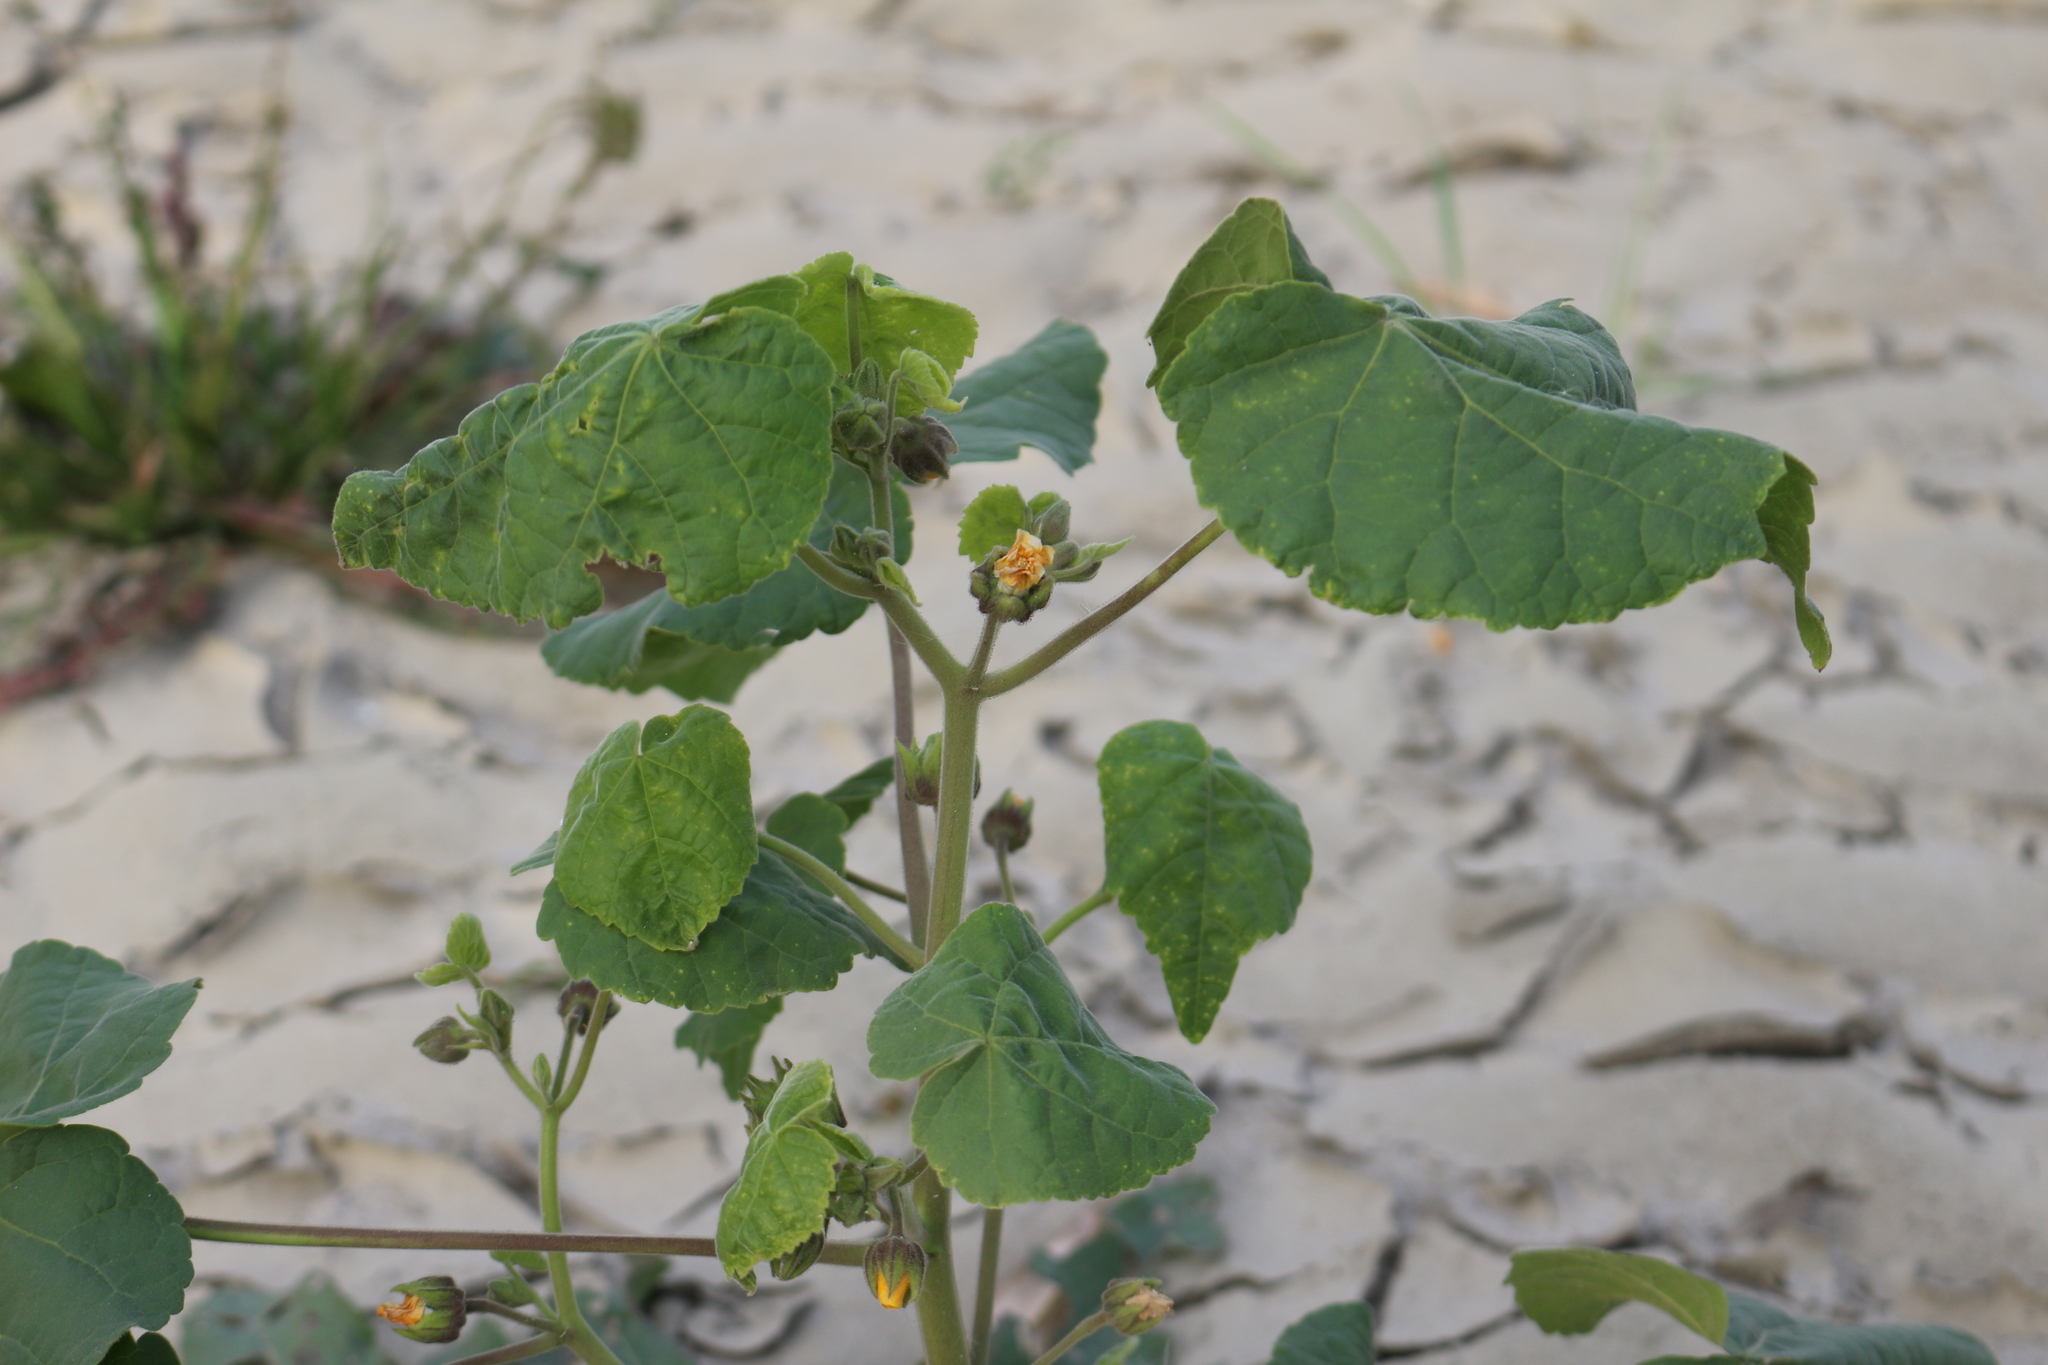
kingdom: Plantae
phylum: Tracheophyta
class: Magnoliopsida
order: Malvales
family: Malvaceae
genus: Abutilon
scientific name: Abutilon theophrasti
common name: Velvetleaf
